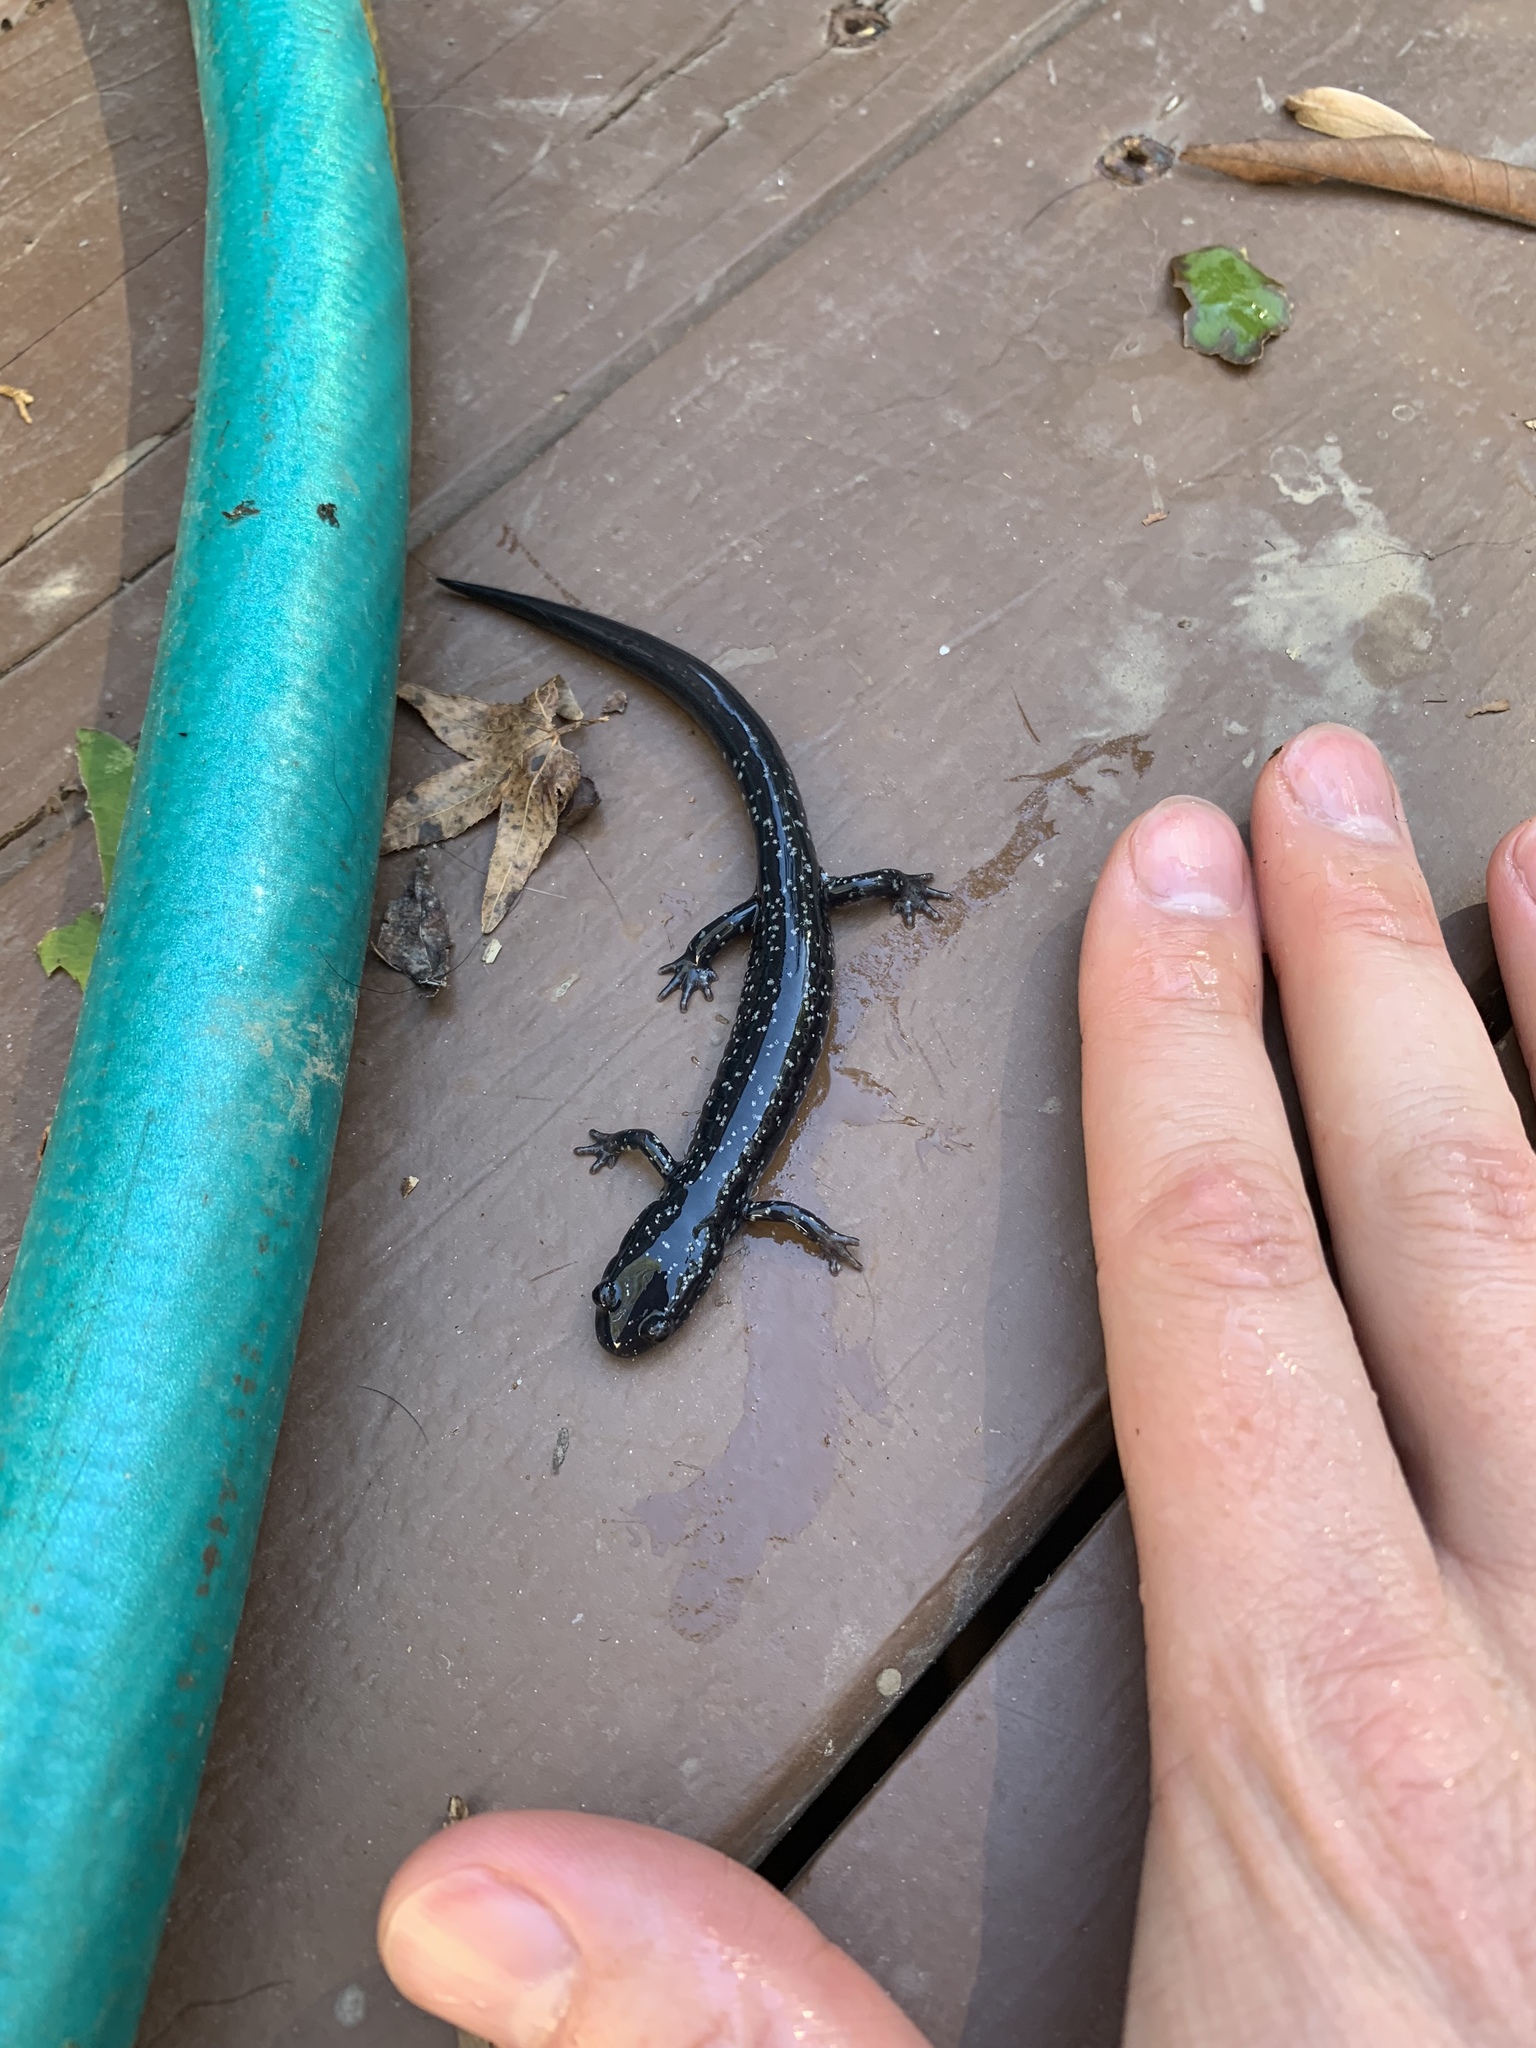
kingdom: Animalia
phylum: Chordata
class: Amphibia
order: Caudata
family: Plethodontidae
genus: Plethodon
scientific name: Plethodon cylindraceus
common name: White-spotted slimy salamander
